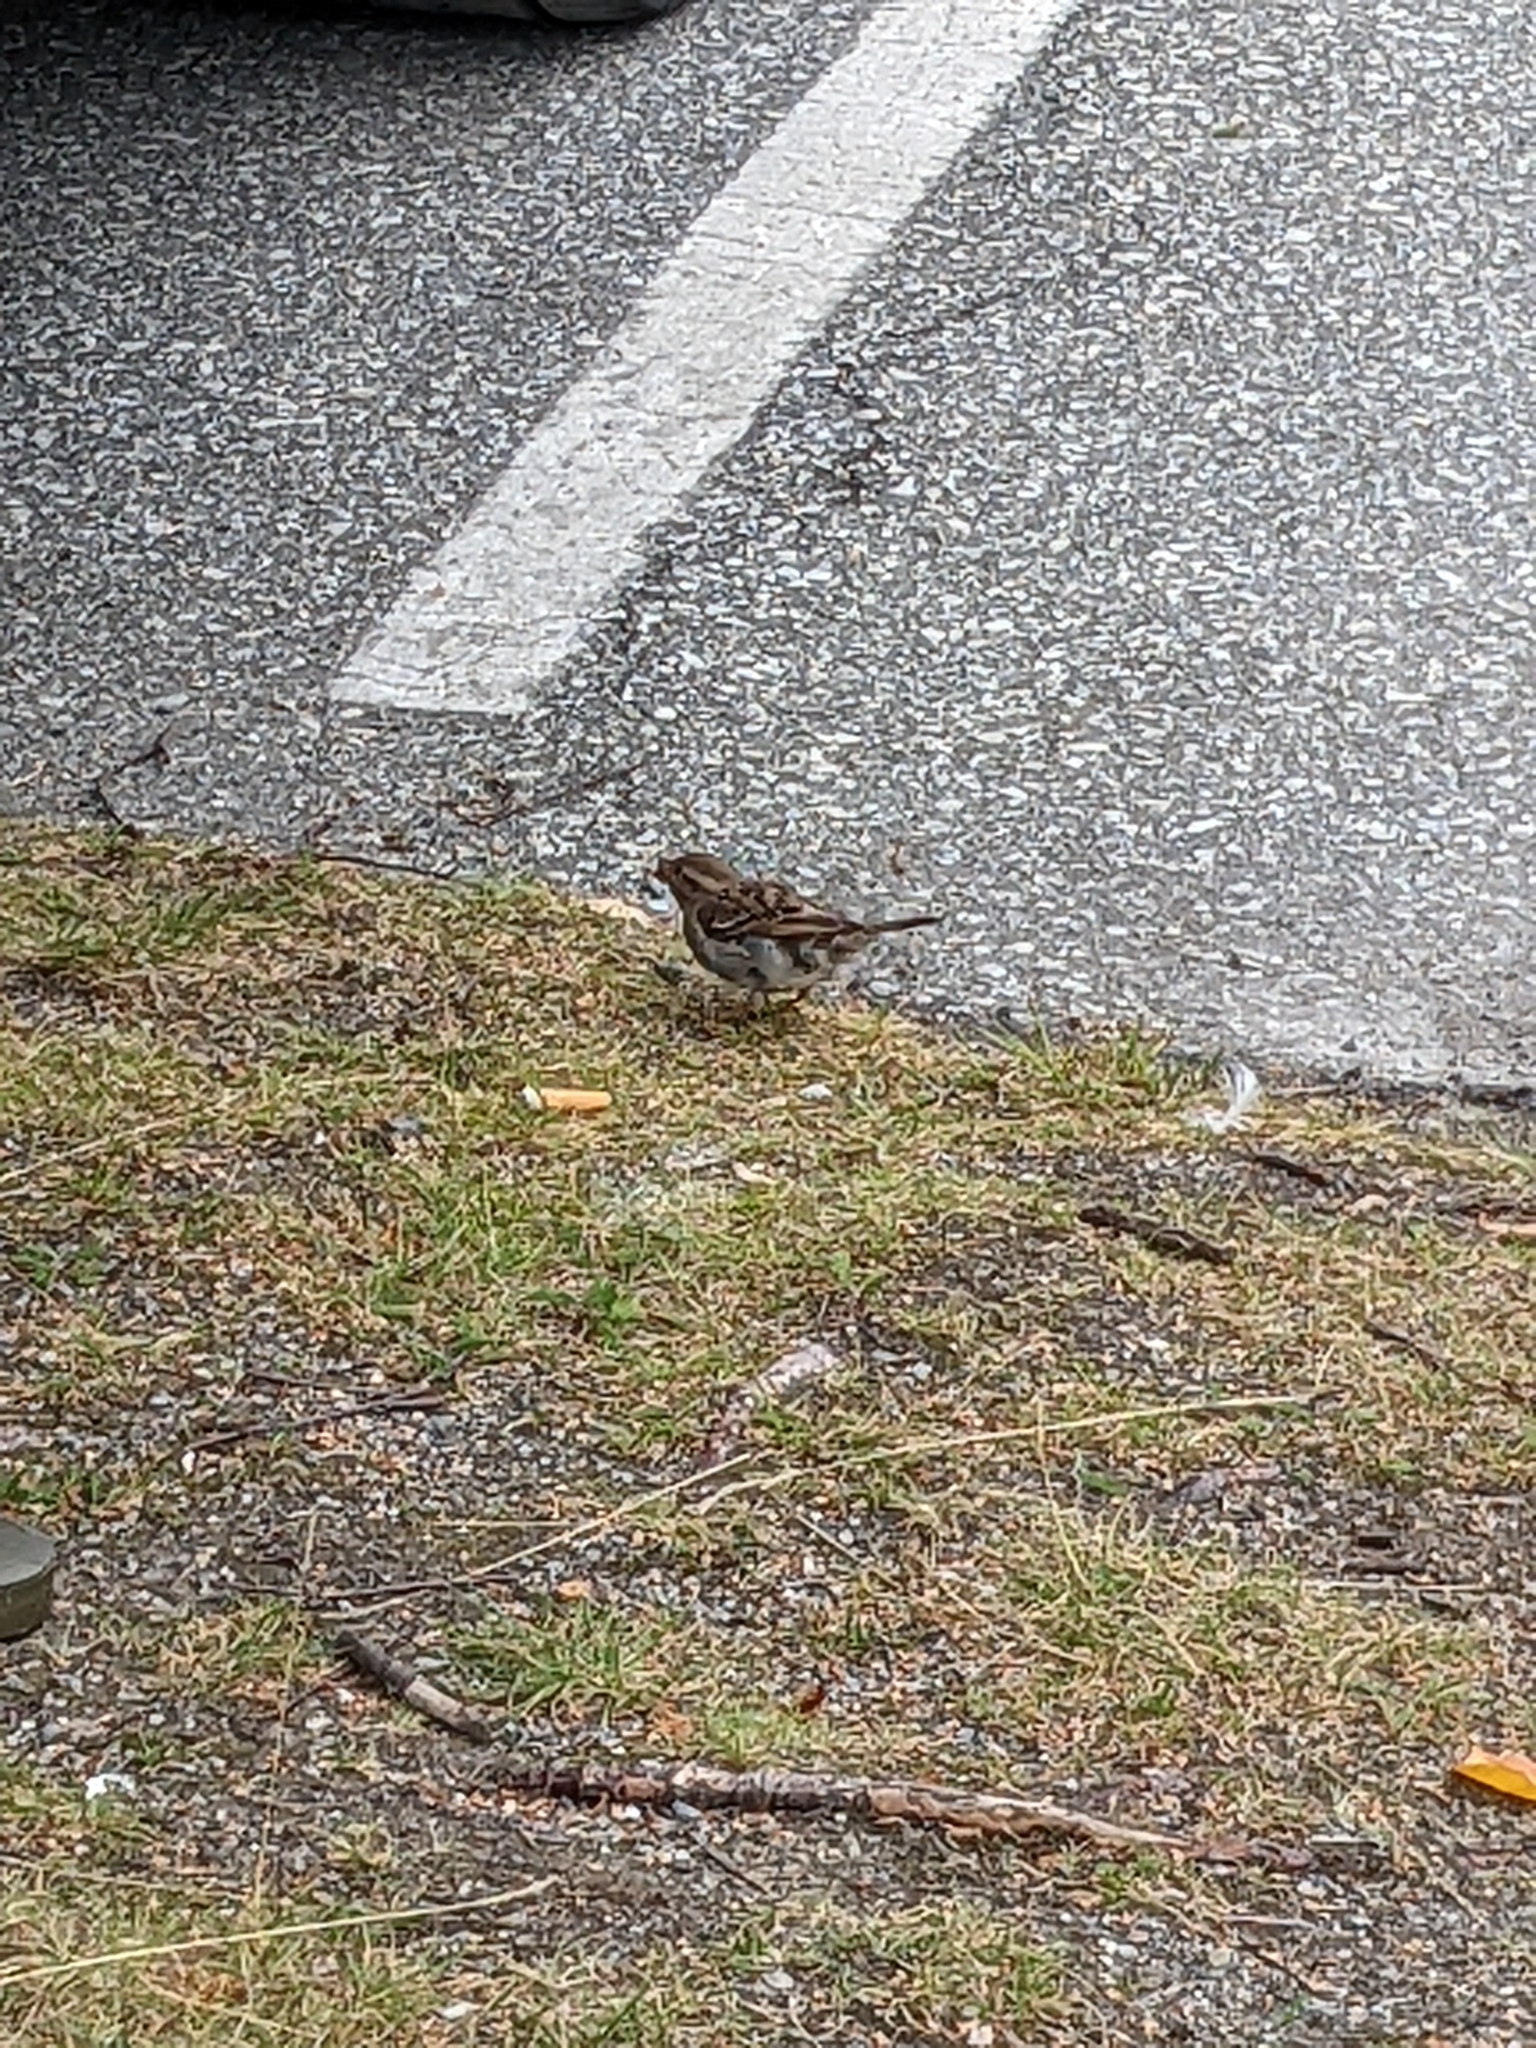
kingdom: Animalia
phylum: Chordata
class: Aves
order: Passeriformes
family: Passeridae
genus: Passer
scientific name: Passer domesticus
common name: House sparrow
